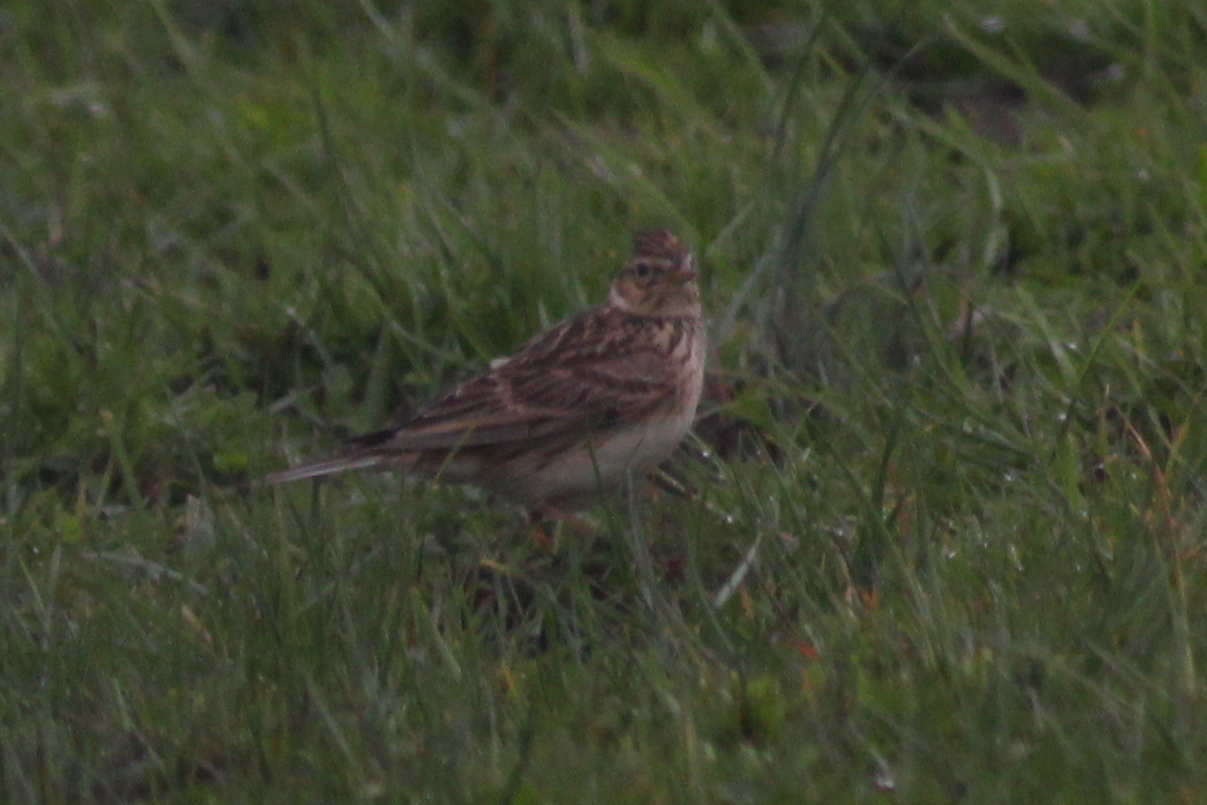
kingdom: Animalia
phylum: Chordata
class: Aves
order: Passeriformes
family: Alaudidae
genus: Alauda
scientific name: Alauda arvensis
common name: Eurasian skylark
